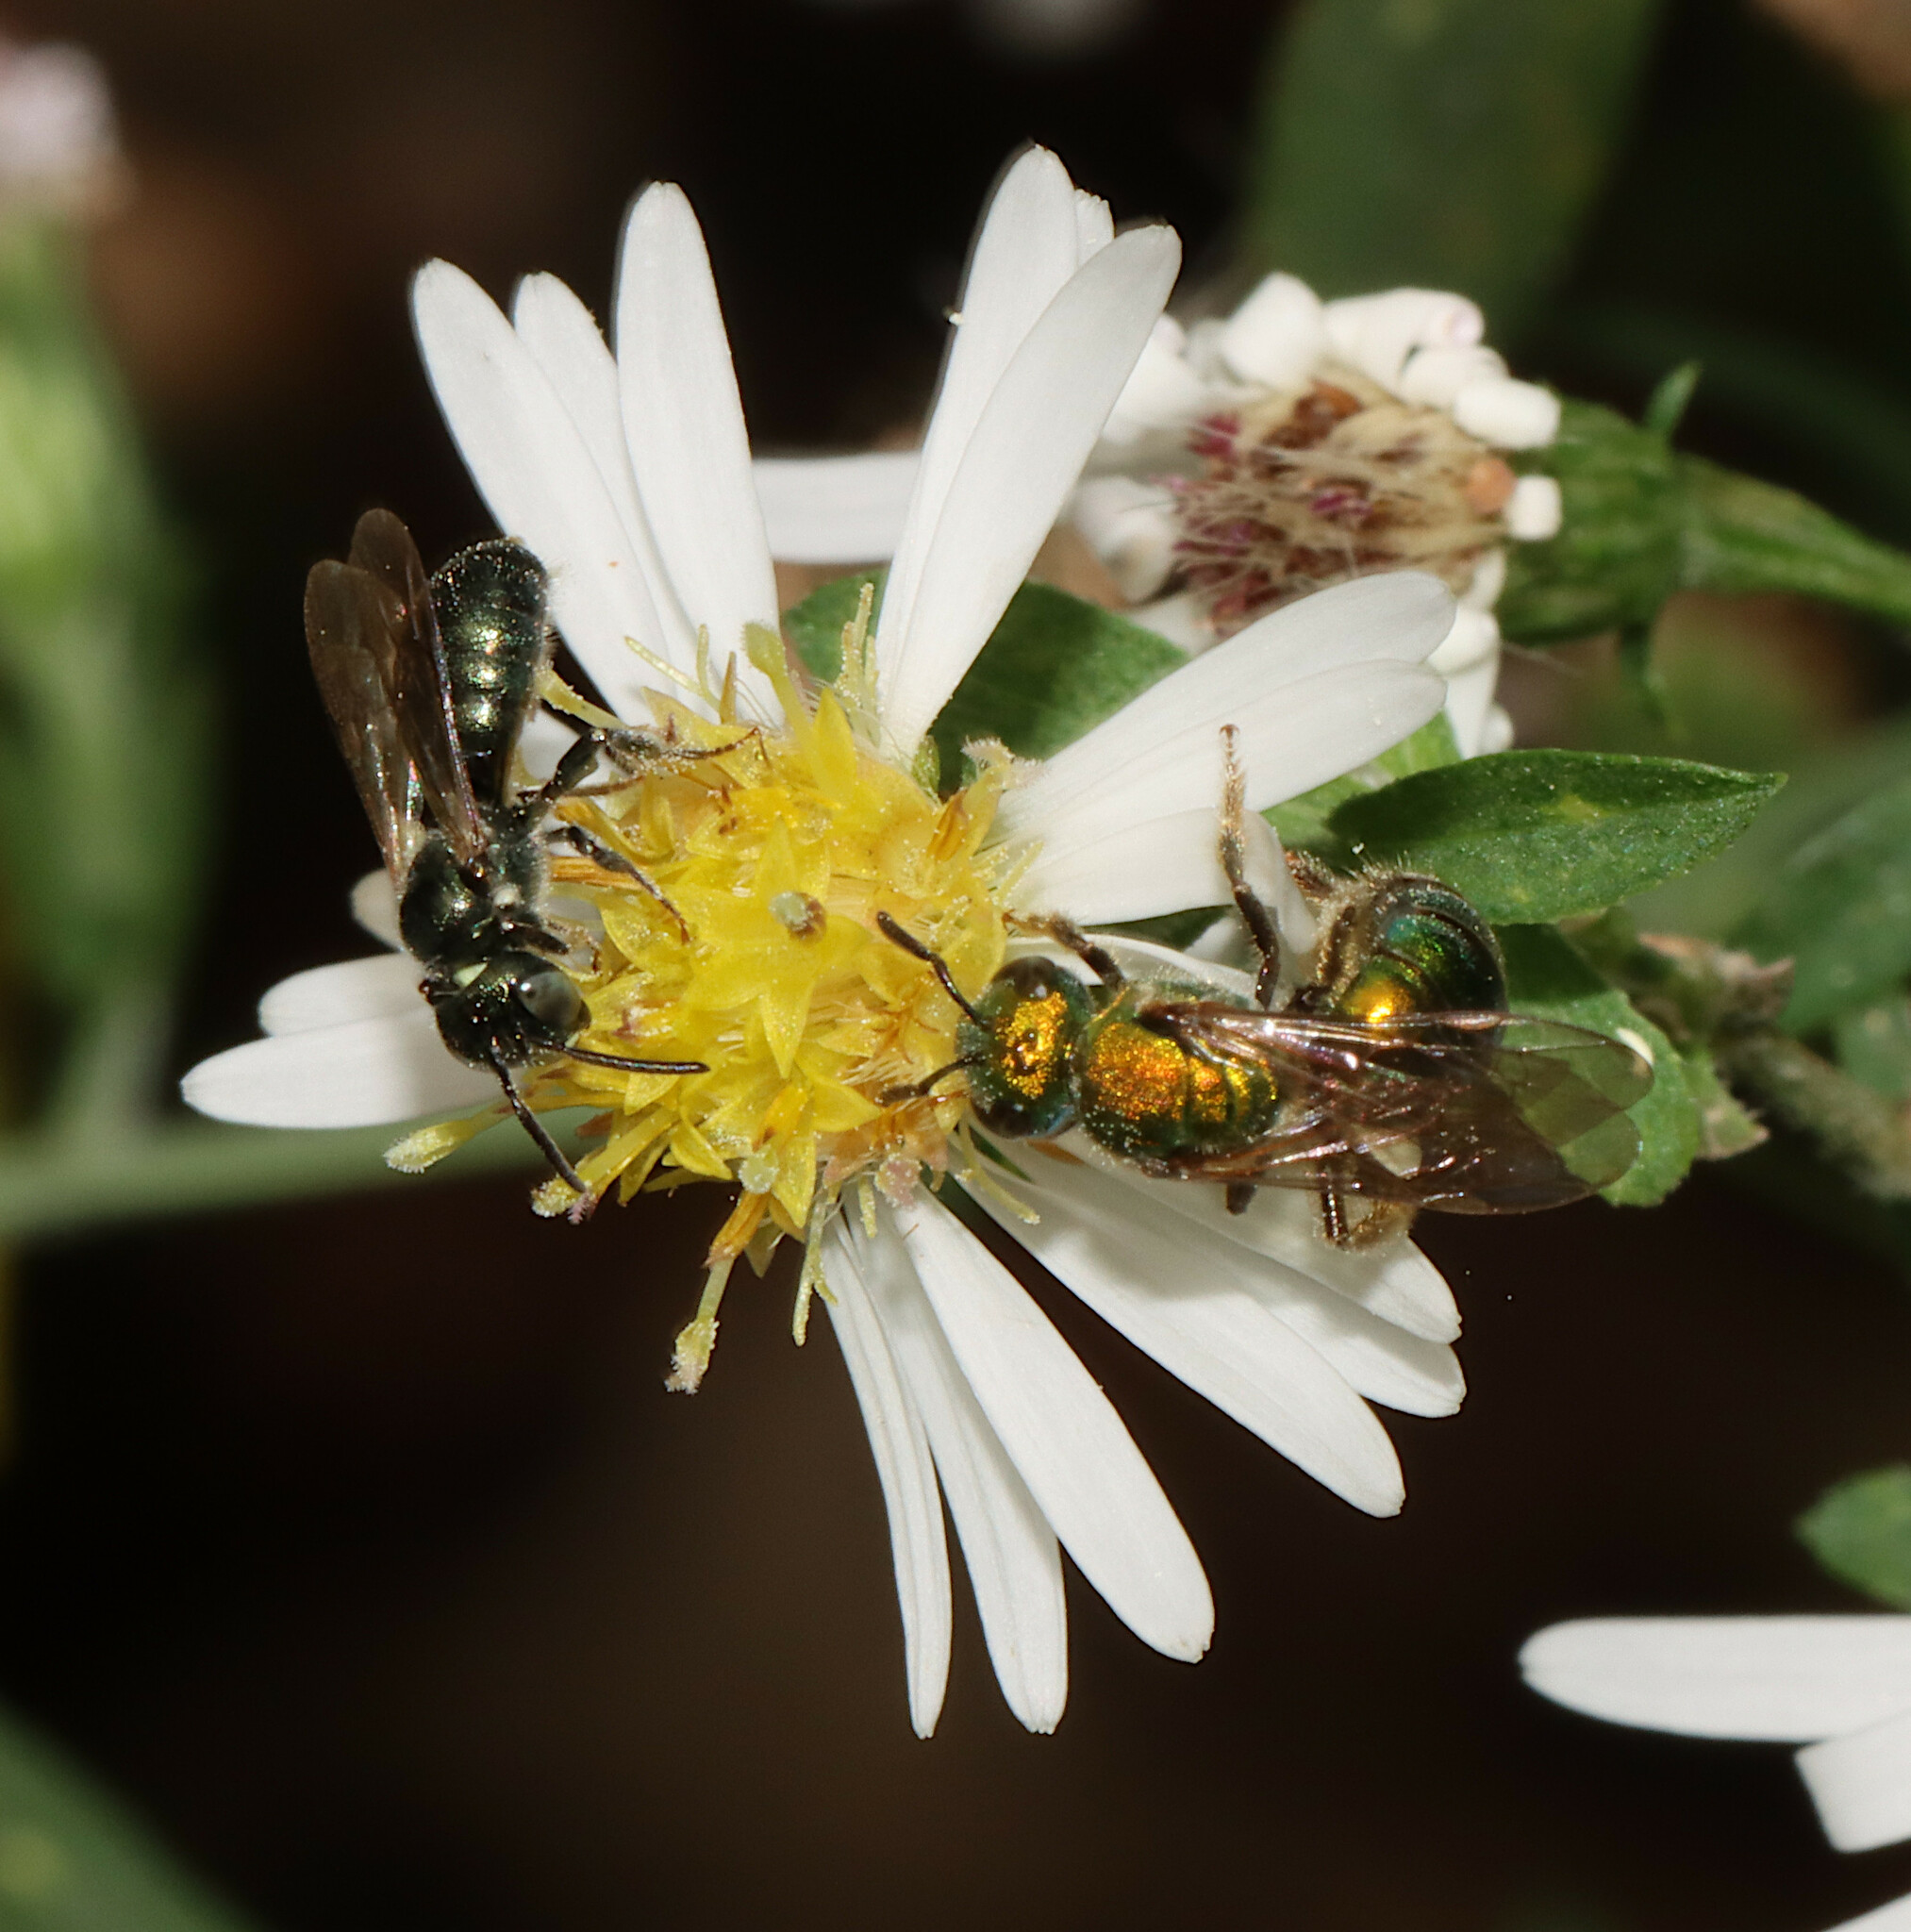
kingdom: Animalia
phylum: Arthropoda
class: Insecta
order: Hymenoptera
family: Halictidae
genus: Augochlora
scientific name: Augochlora pura
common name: Pure green sweat bee
